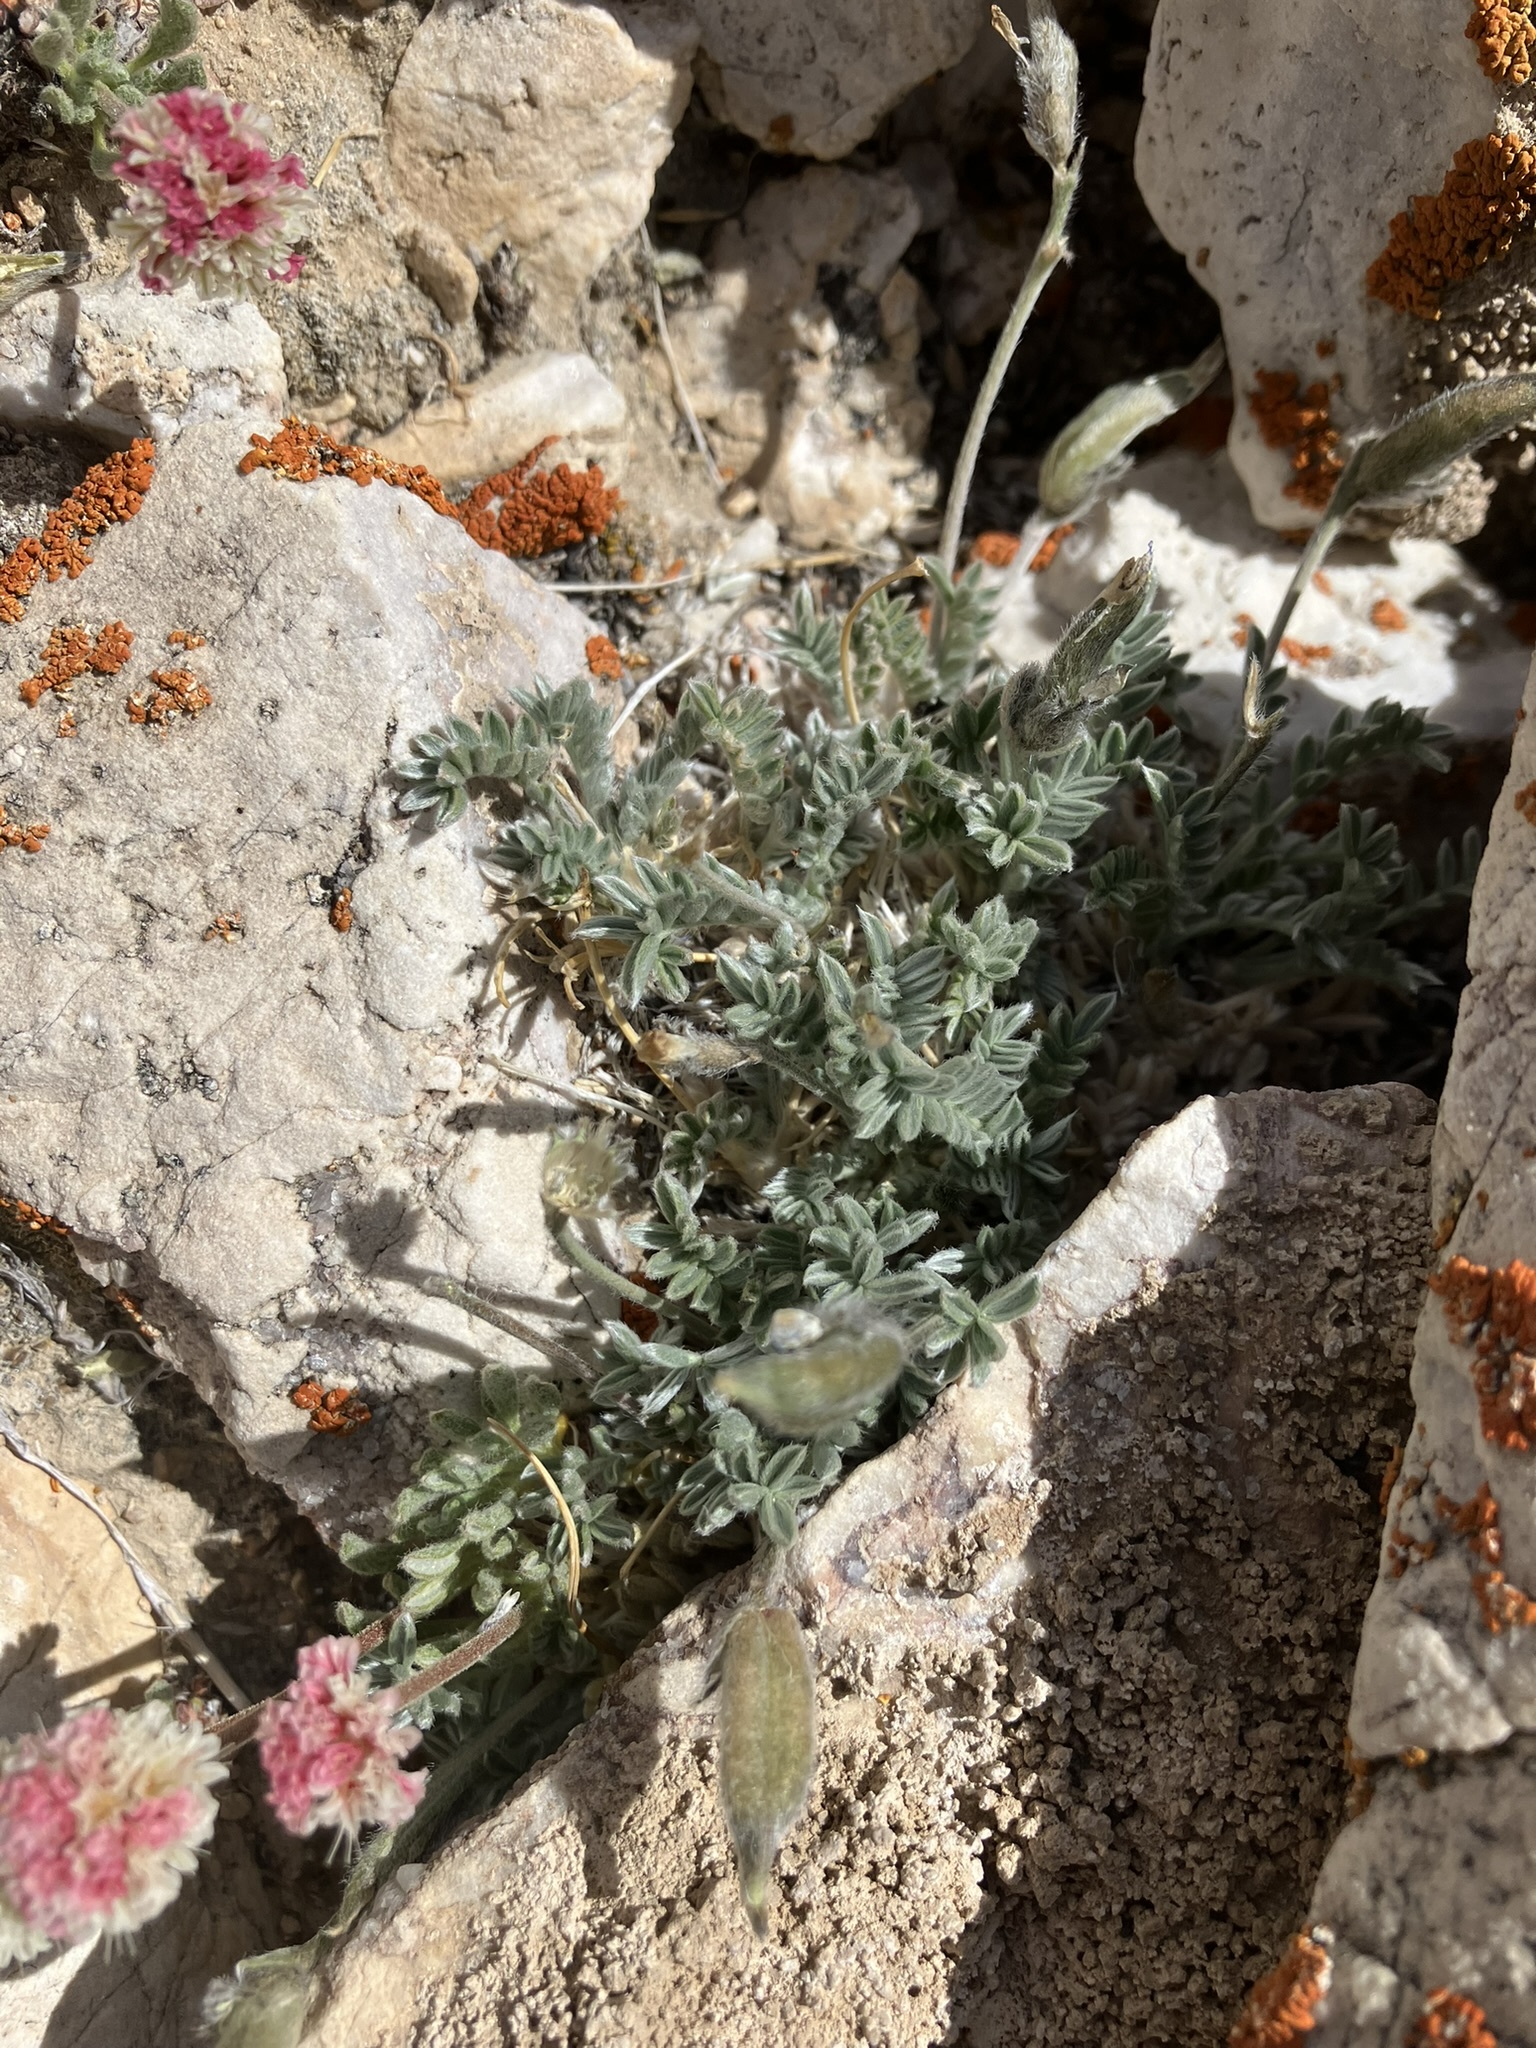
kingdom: Plantae
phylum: Tracheophyta
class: Magnoliopsida
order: Fabales
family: Fabaceae
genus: Oxytropis
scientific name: Oxytropis parryi
